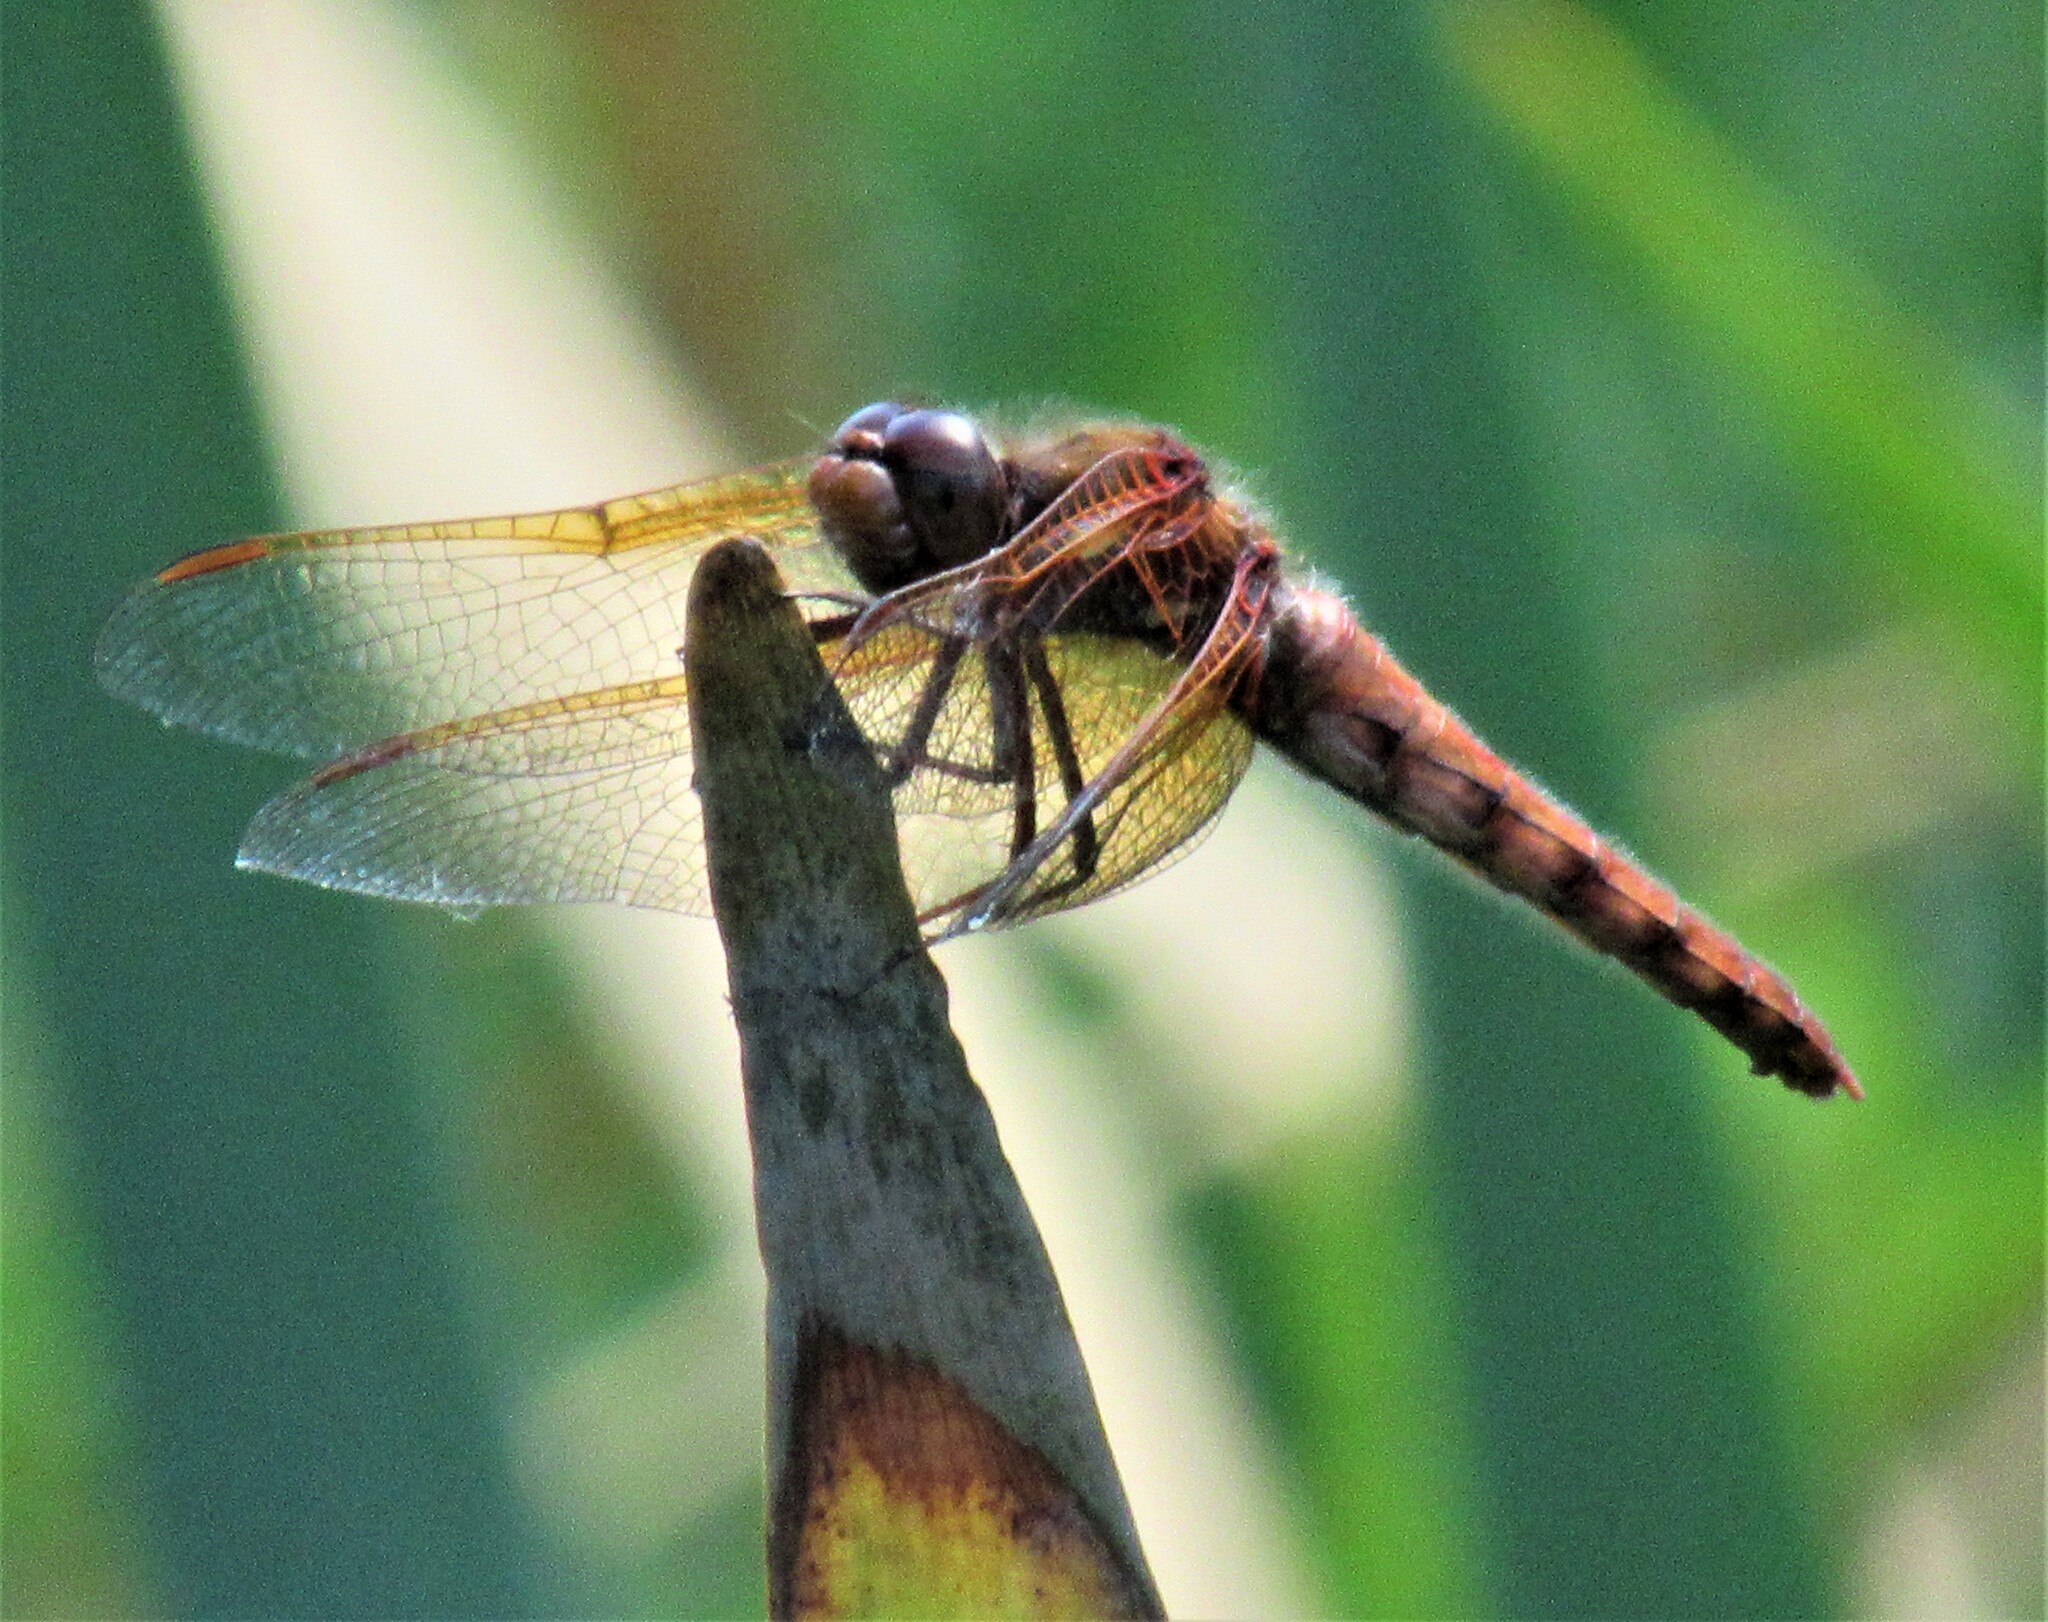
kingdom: Animalia
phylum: Arthropoda
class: Insecta
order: Odonata
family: Libellulidae
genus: Sympetrum
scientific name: Sympetrum illotum
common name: Cardinal meadowhawk
